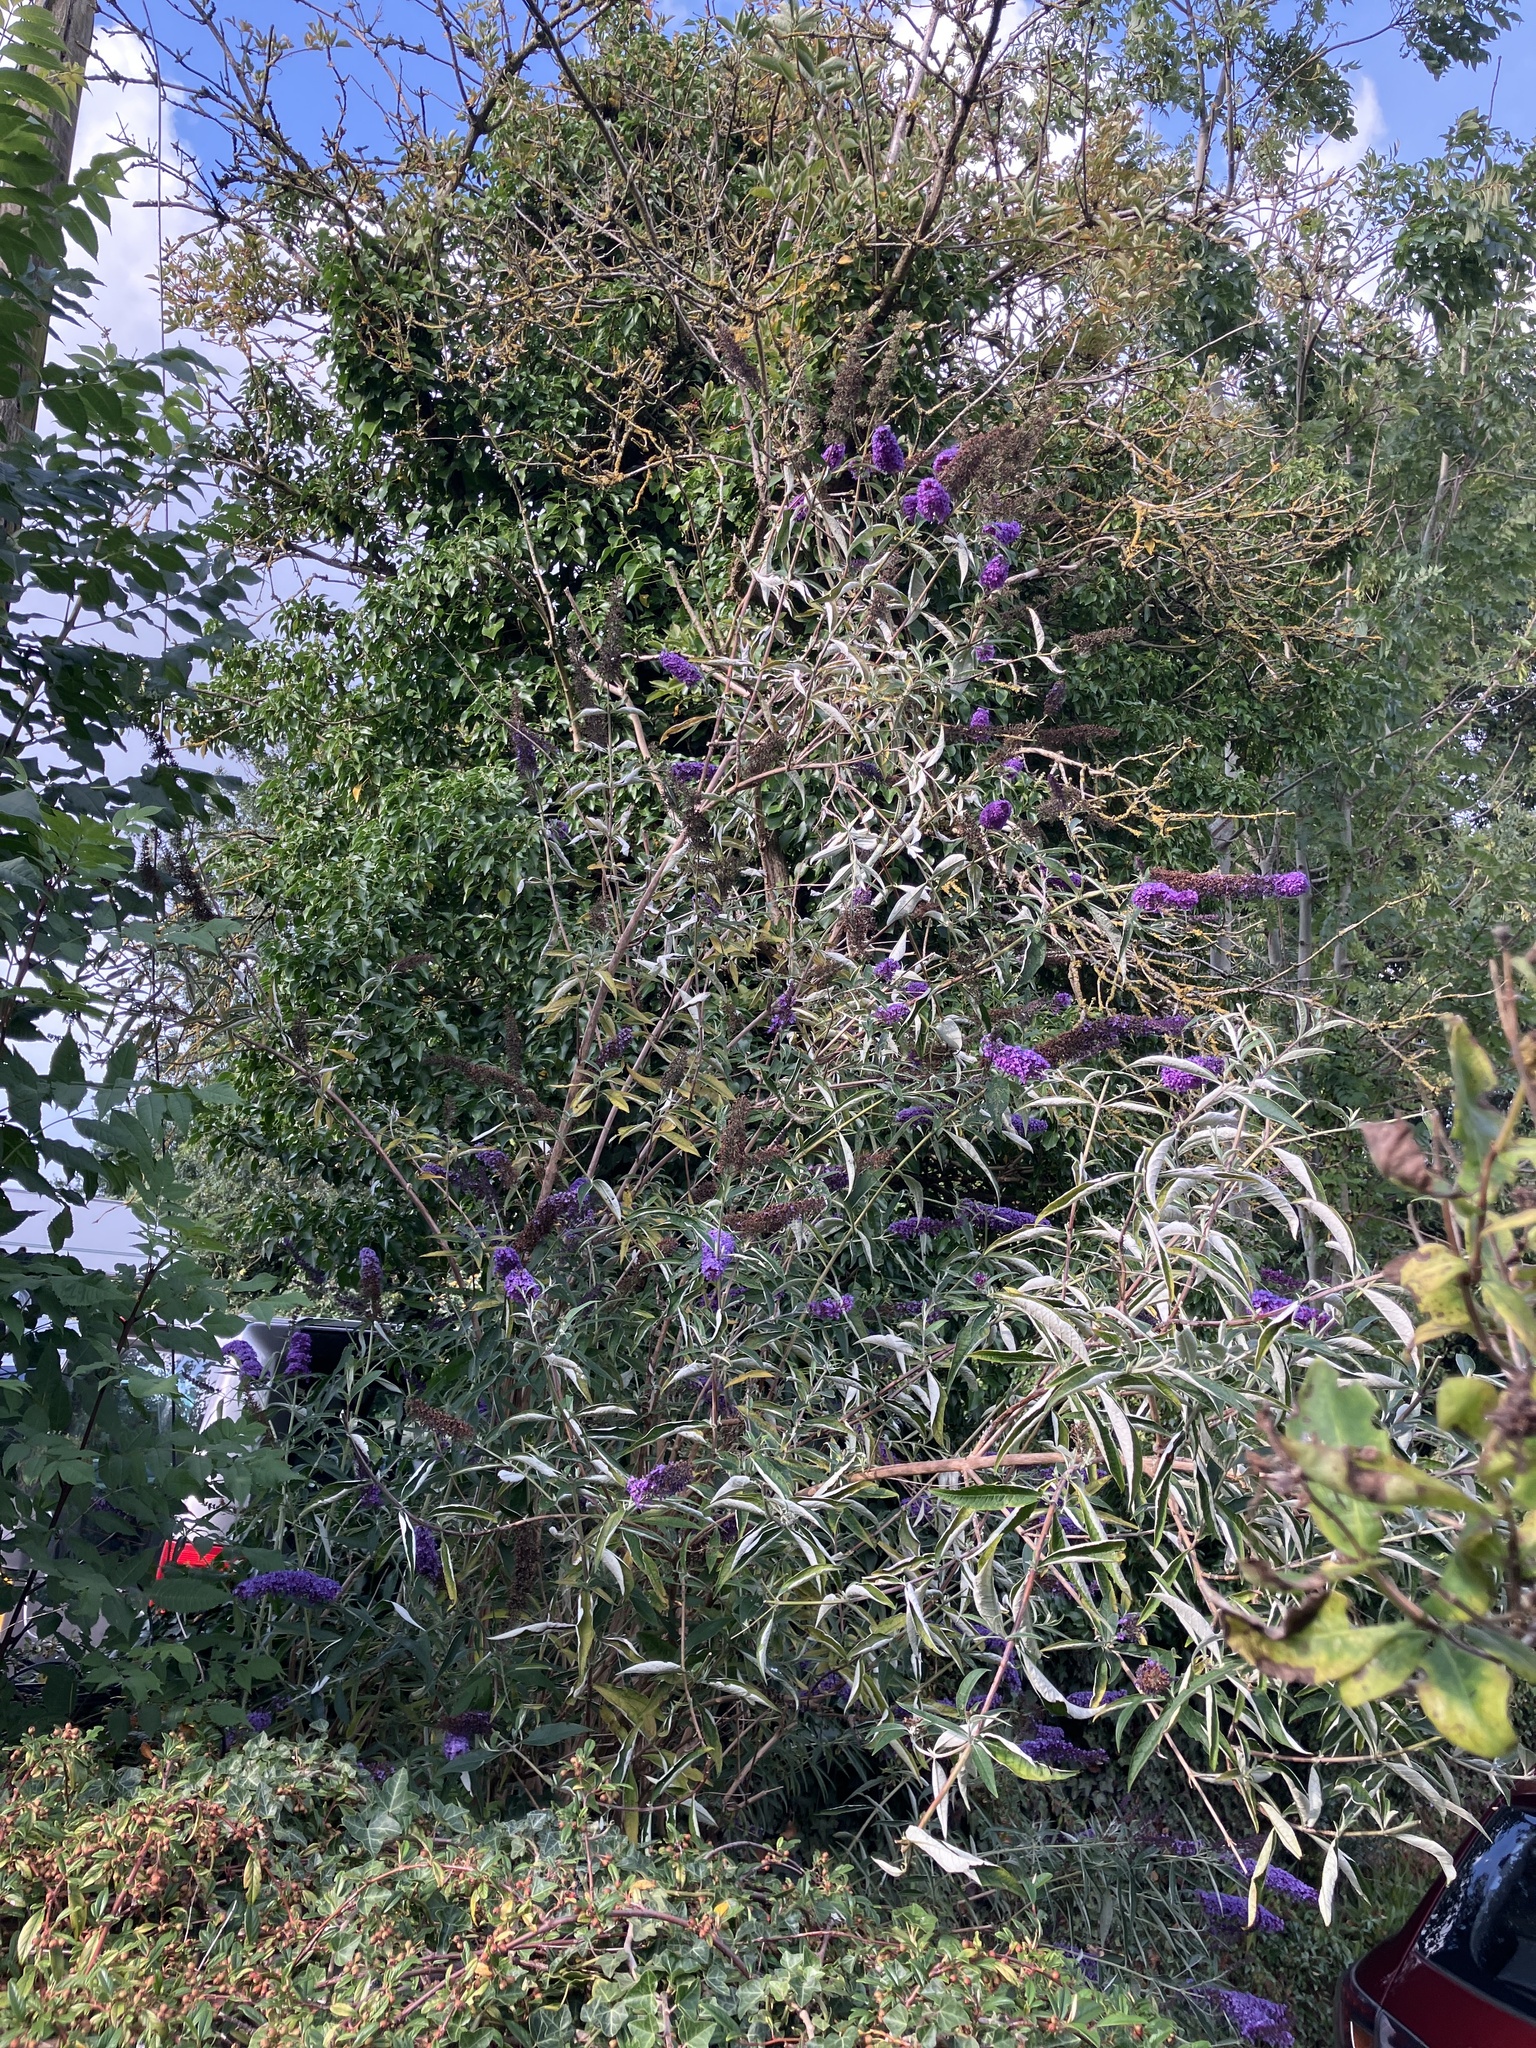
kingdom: Plantae
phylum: Tracheophyta
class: Magnoliopsida
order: Lamiales
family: Scrophulariaceae
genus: Buddleja
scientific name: Buddleja davidii
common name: Butterfly-bush
